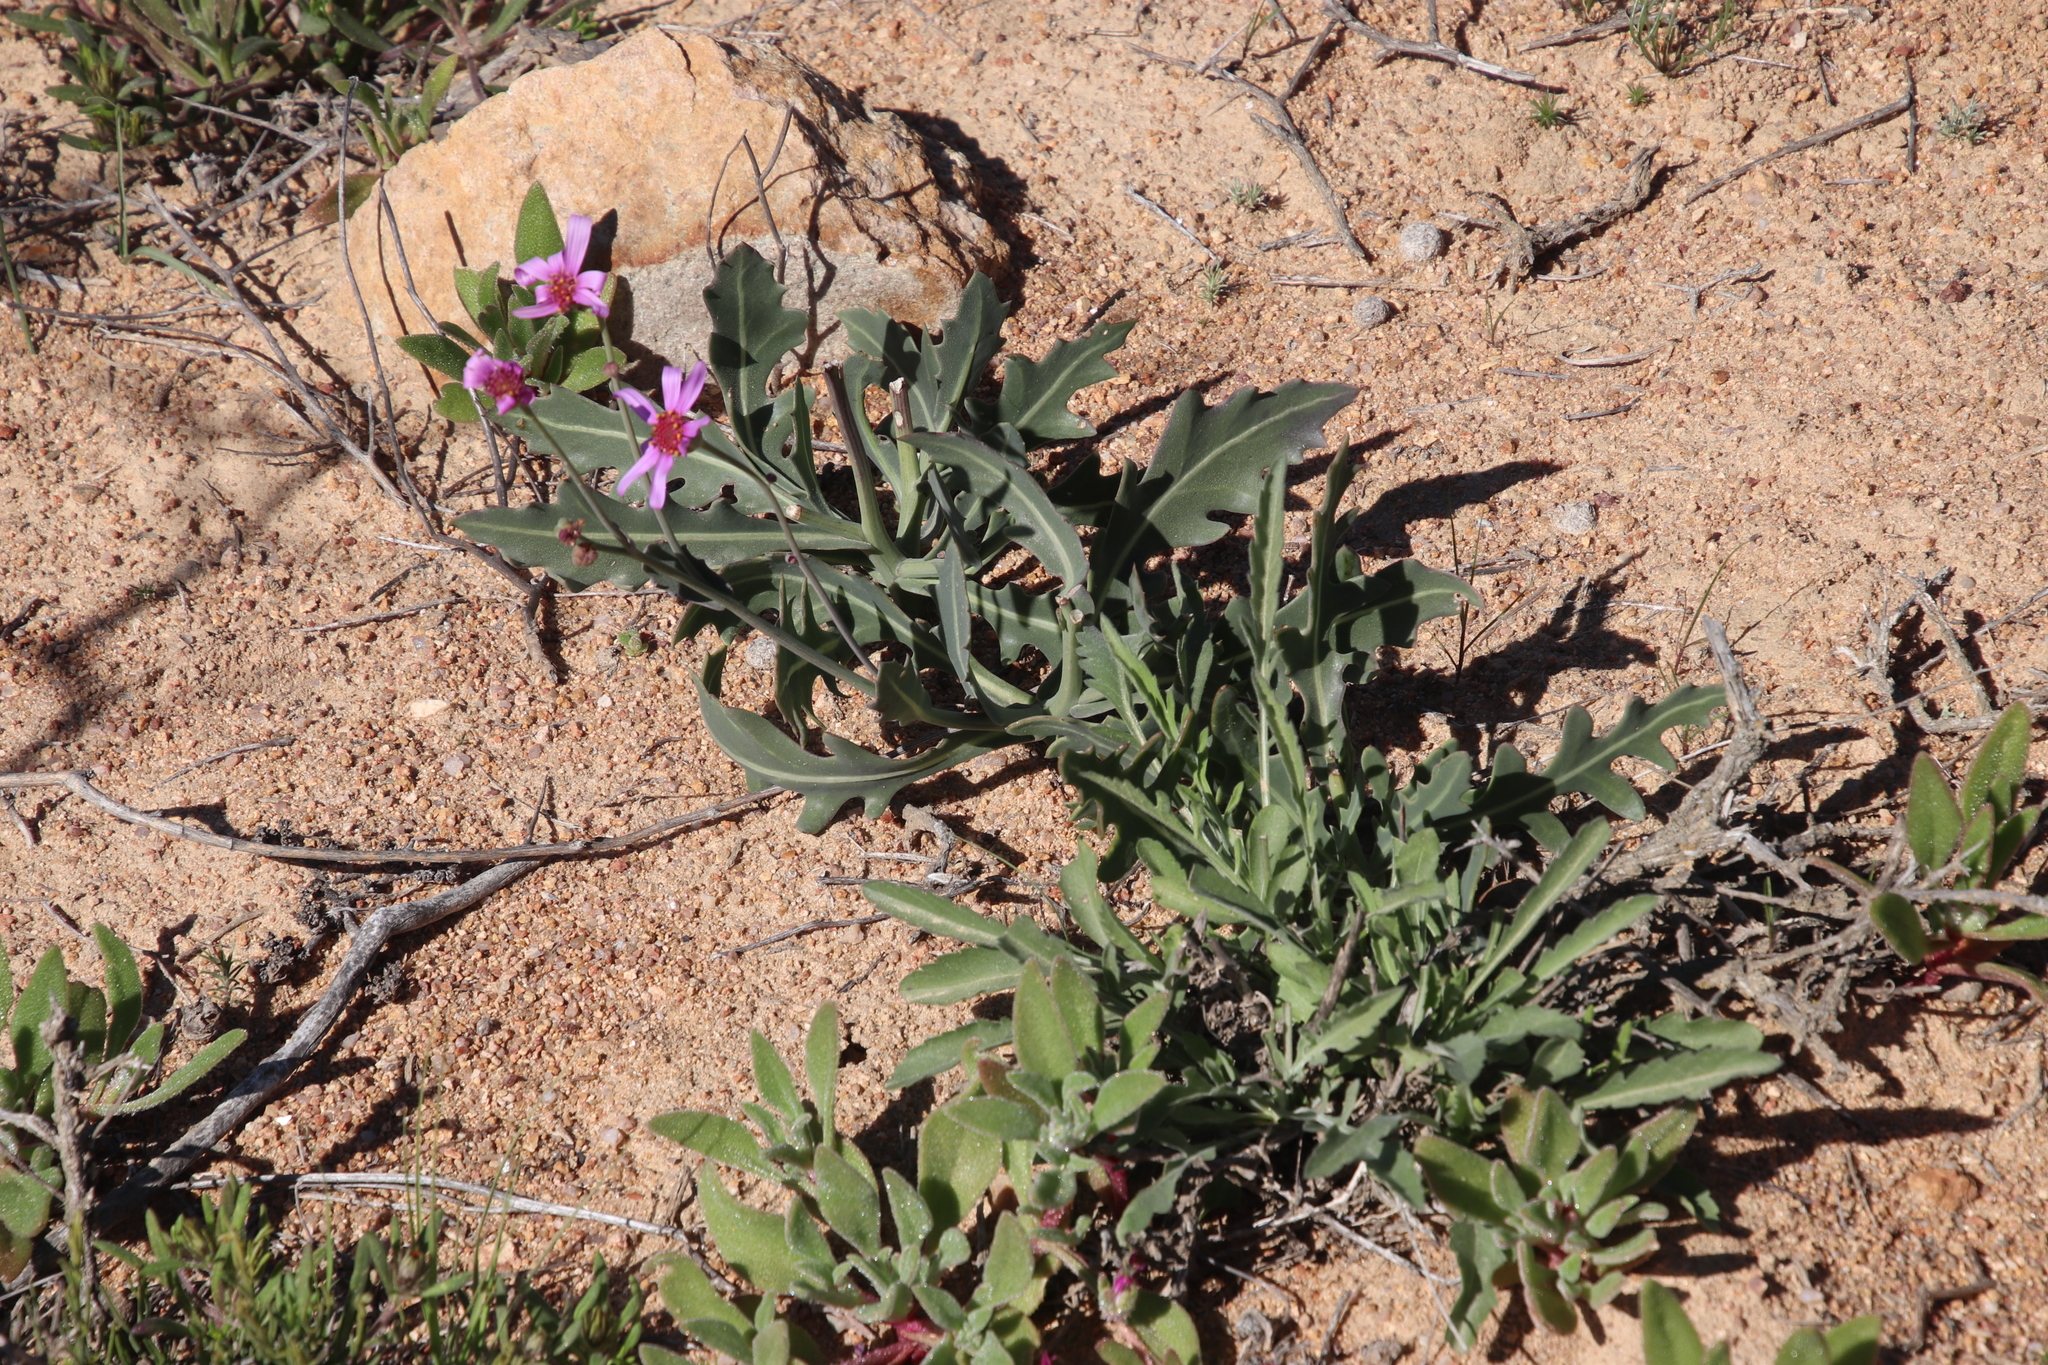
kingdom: Plantae
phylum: Tracheophyta
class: Magnoliopsida
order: Asterales
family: Asteraceae
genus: Othonna
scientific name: Othonna rosea
